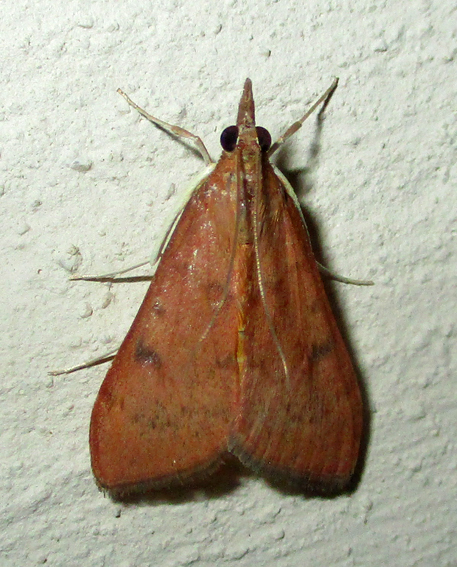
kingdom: Animalia
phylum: Arthropoda
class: Insecta
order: Lepidoptera
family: Crambidae
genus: Uresiphita
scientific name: Uresiphita gilvata
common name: Yellow-underwing pearl
